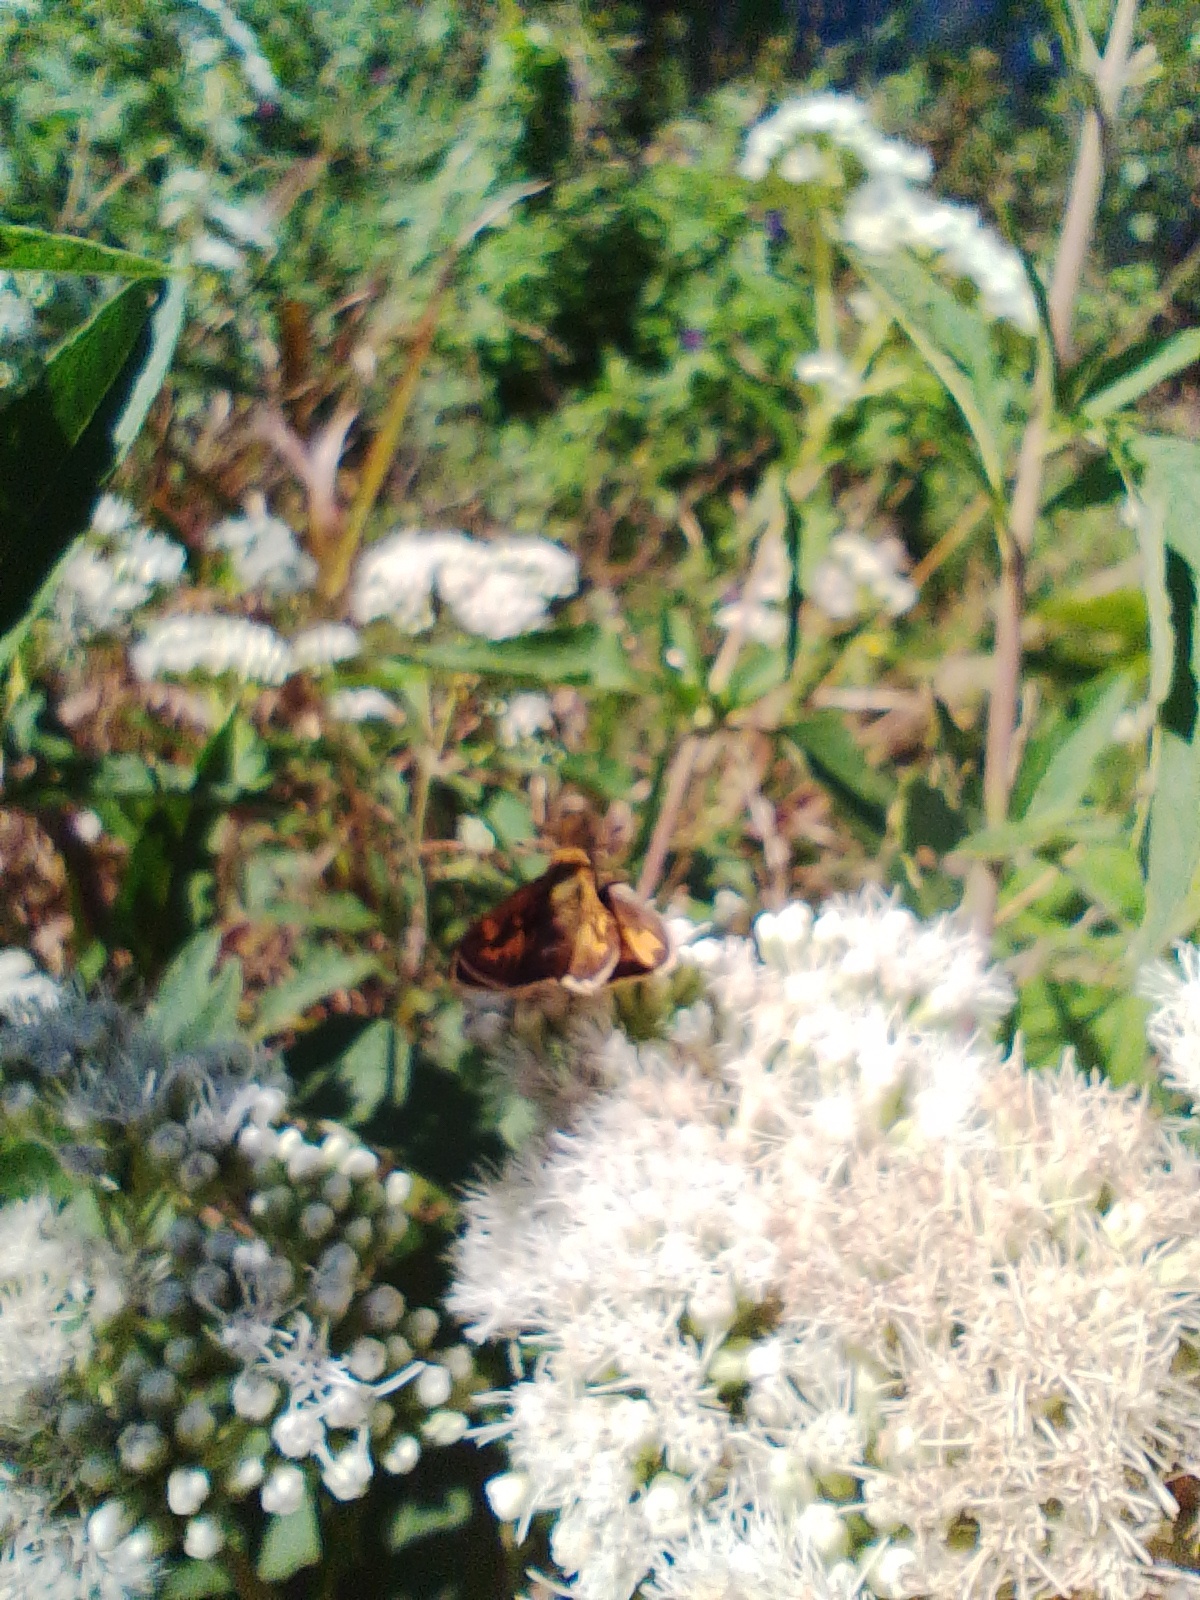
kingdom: Animalia
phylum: Arthropoda
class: Insecta
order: Lepidoptera
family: Hesperiidae
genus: Hylephila
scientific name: Hylephila phyleus
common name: Fiery skipper
